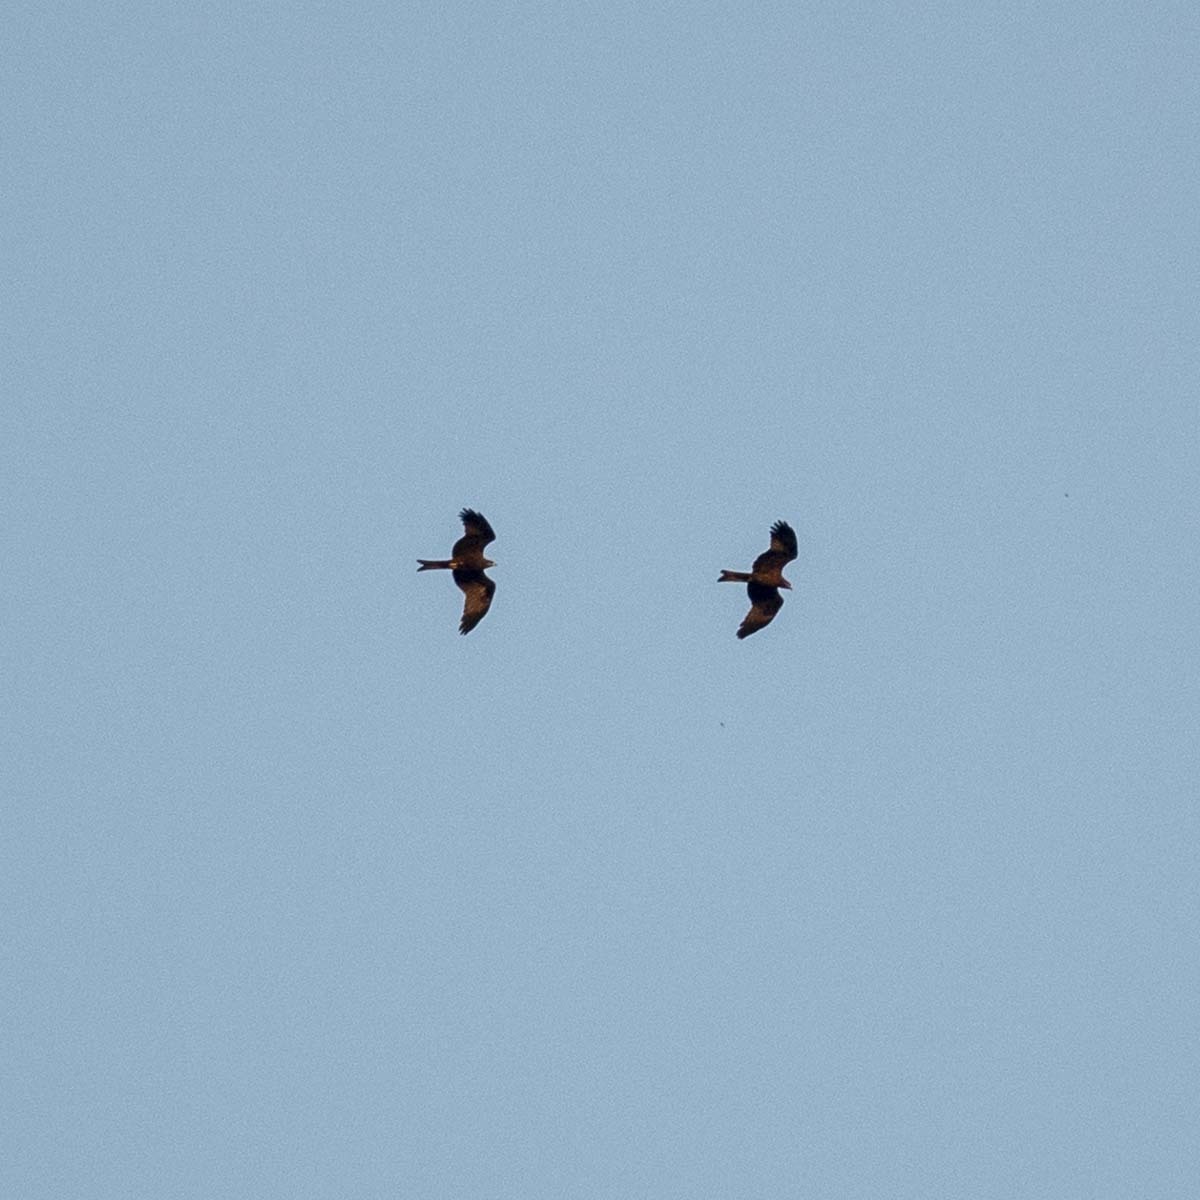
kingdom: Animalia
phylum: Chordata
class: Aves
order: Accipitriformes
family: Accipitridae
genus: Milvus
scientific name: Milvus migrans
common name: Black kite
